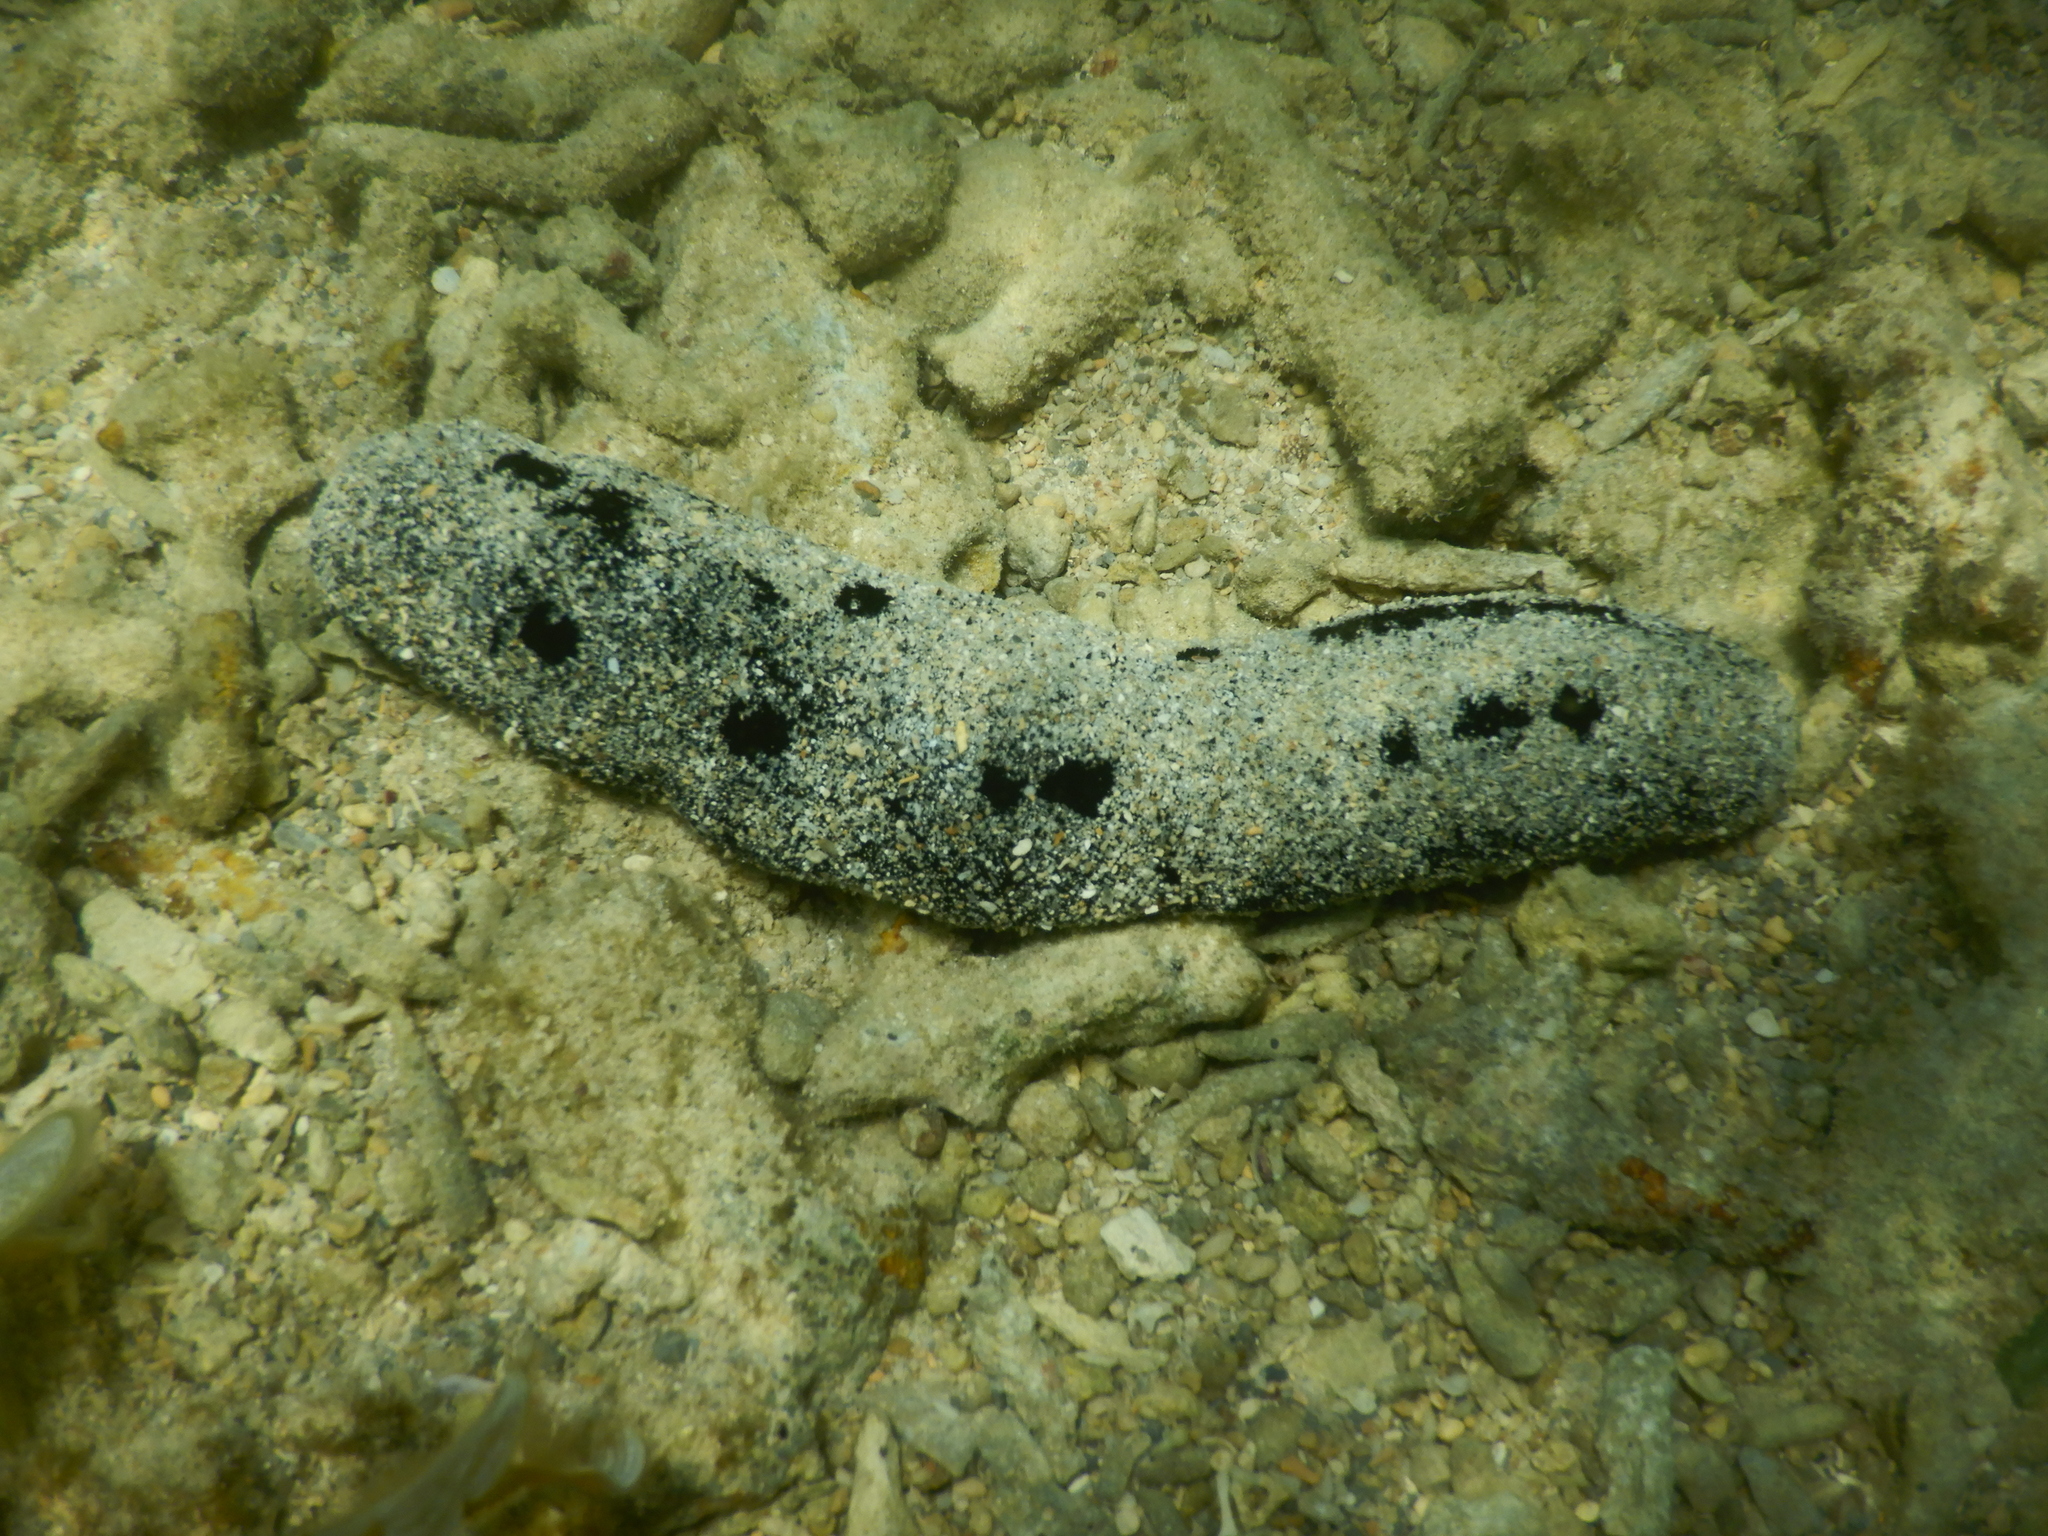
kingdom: Animalia
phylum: Echinodermata
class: Holothuroidea
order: Holothuriida
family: Holothuriidae
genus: Holothuria
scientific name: Holothuria atra
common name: Lollyfish
